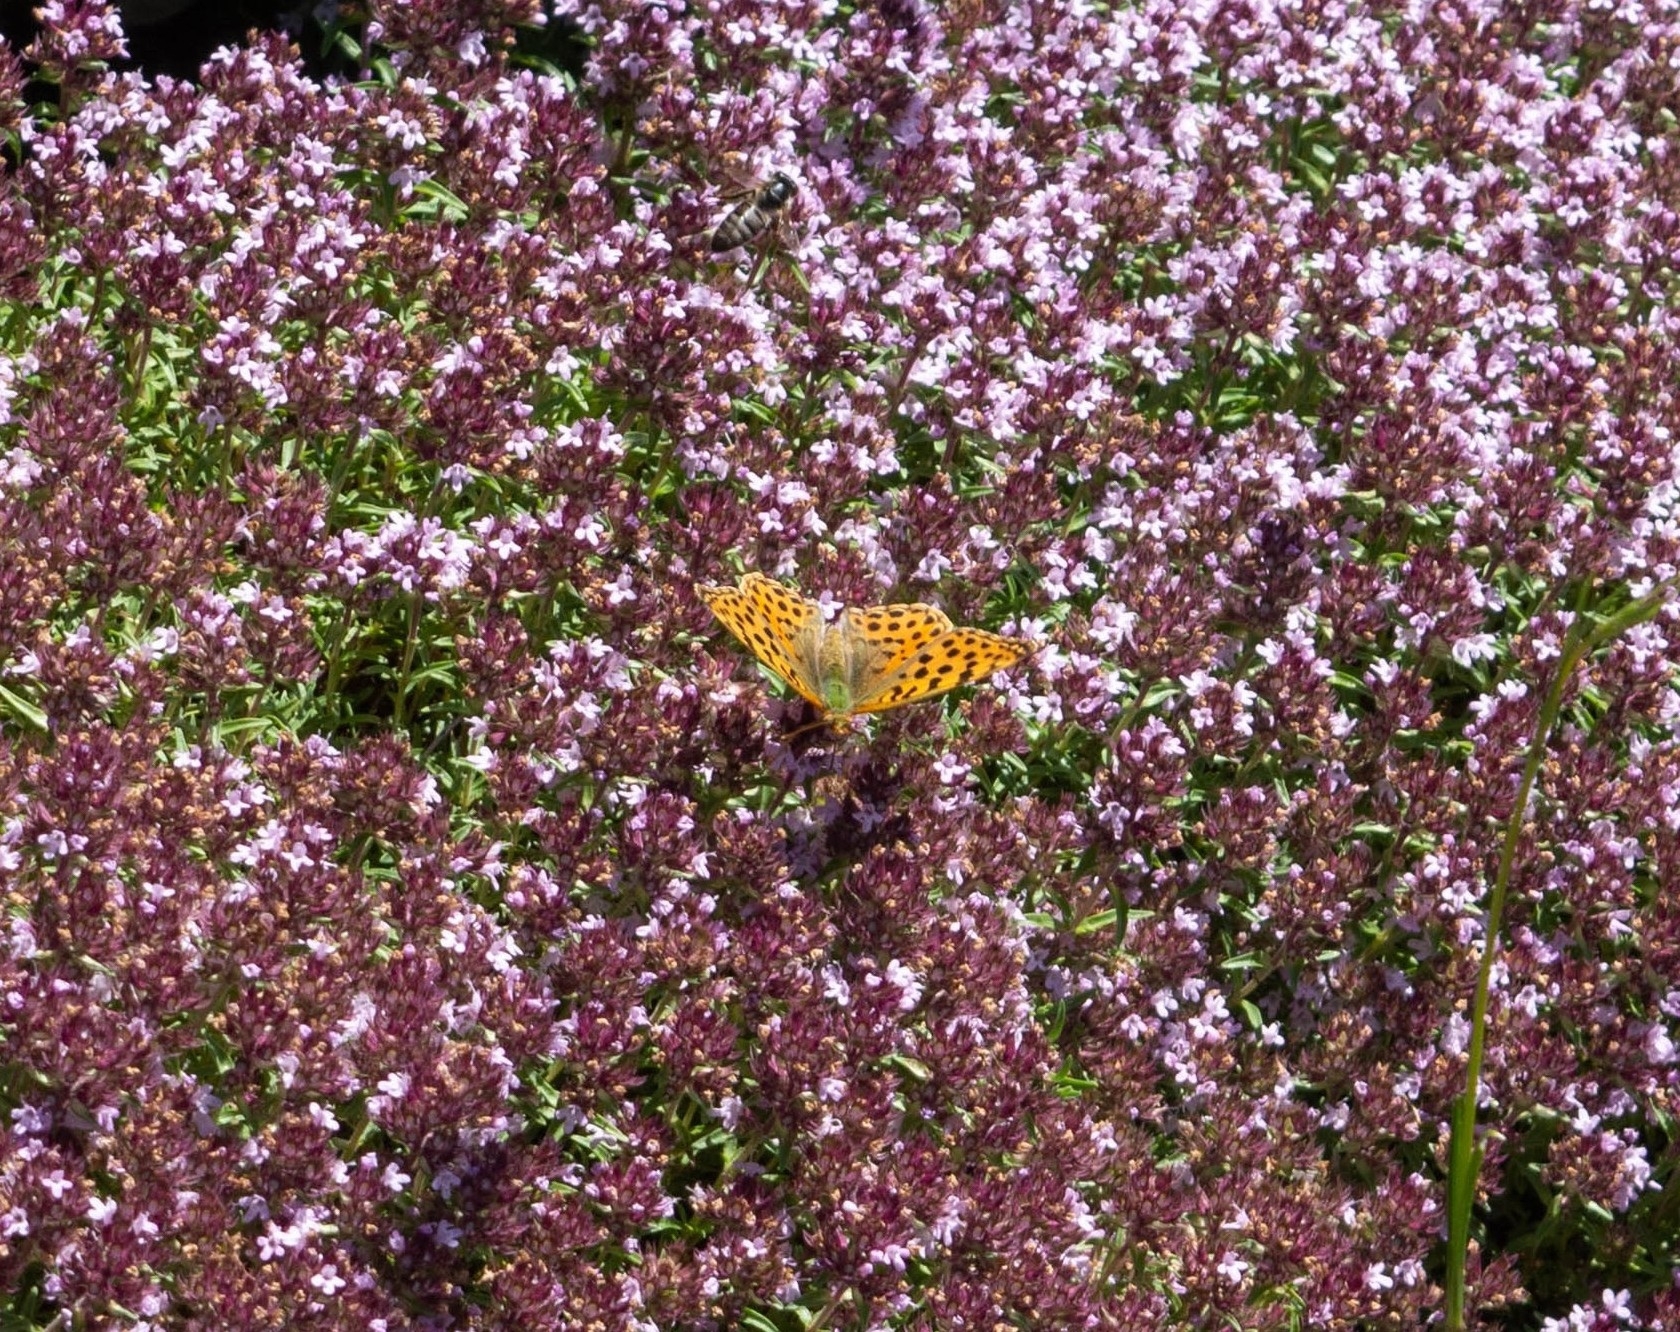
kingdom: Animalia
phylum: Arthropoda
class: Insecta
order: Lepidoptera
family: Nymphalidae
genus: Issoria
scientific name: Issoria lathonia
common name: Queen of spain fritillary
